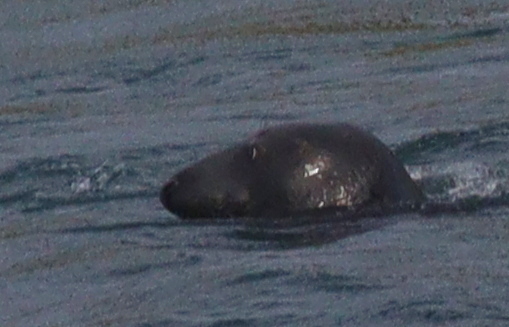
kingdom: Animalia
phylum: Chordata
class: Mammalia
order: Carnivora
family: Phocidae
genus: Halichoerus
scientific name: Halichoerus grypus
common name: Grey seal
